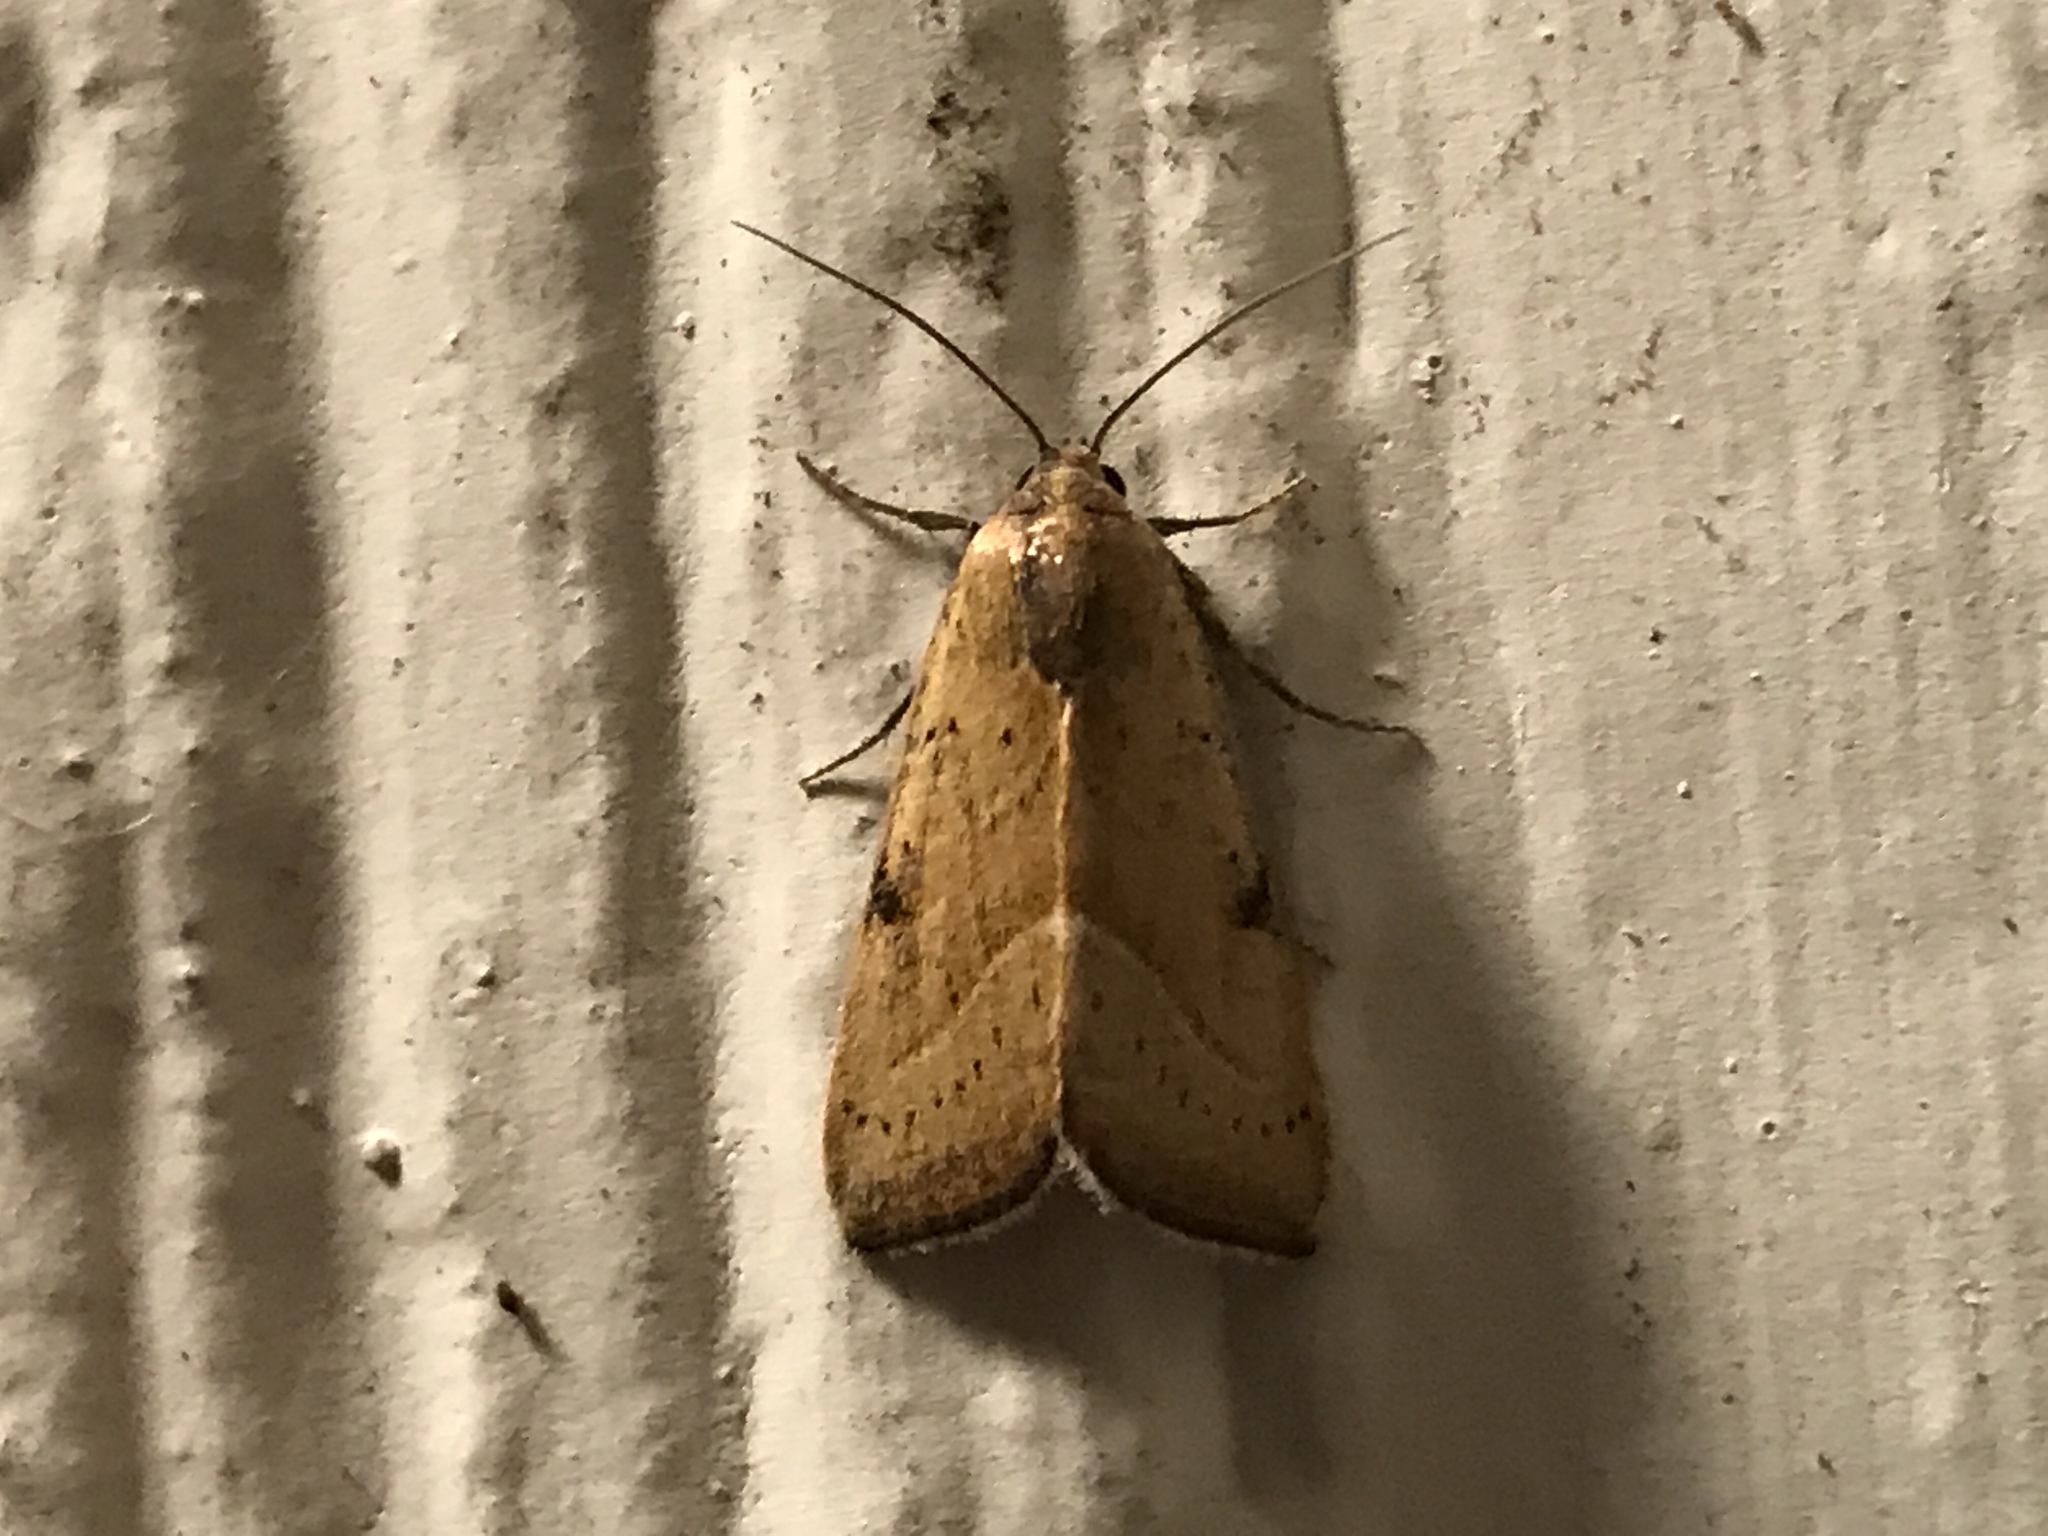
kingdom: Animalia
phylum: Arthropoda
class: Insecta
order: Lepidoptera
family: Noctuidae
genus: Galgula
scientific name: Galgula partita
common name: Wedgeling
